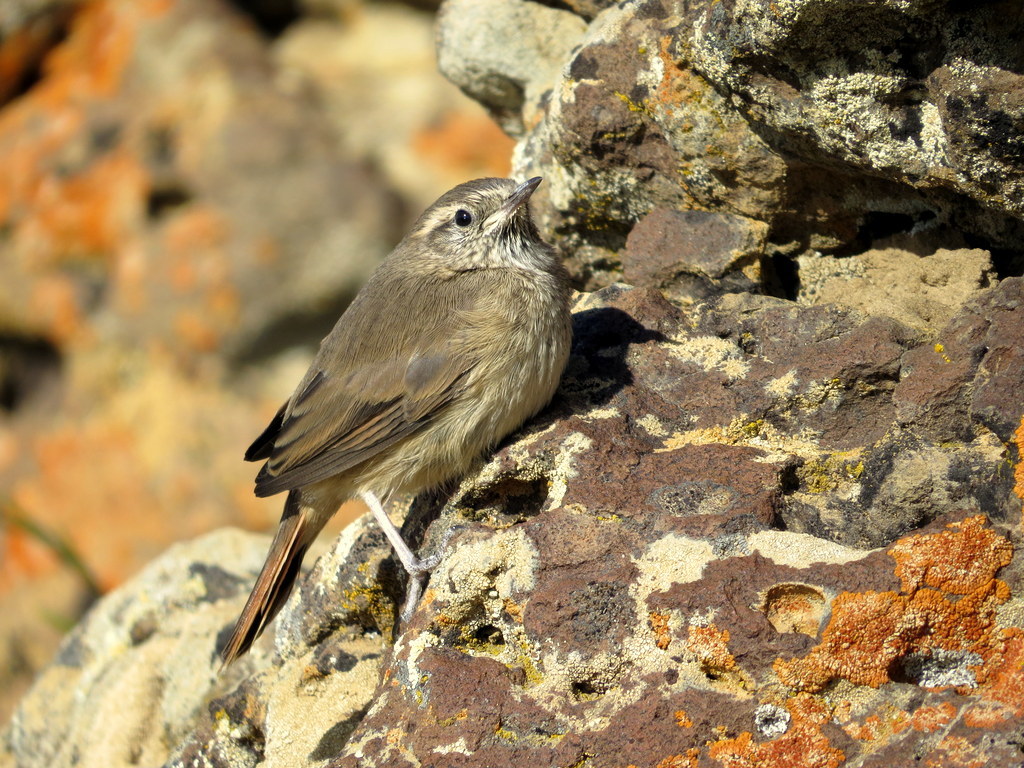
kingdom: Animalia
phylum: Chordata
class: Aves
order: Passeriformes
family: Furnariidae
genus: Asthenes
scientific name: Asthenes modesta
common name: Cordilleran canastero
